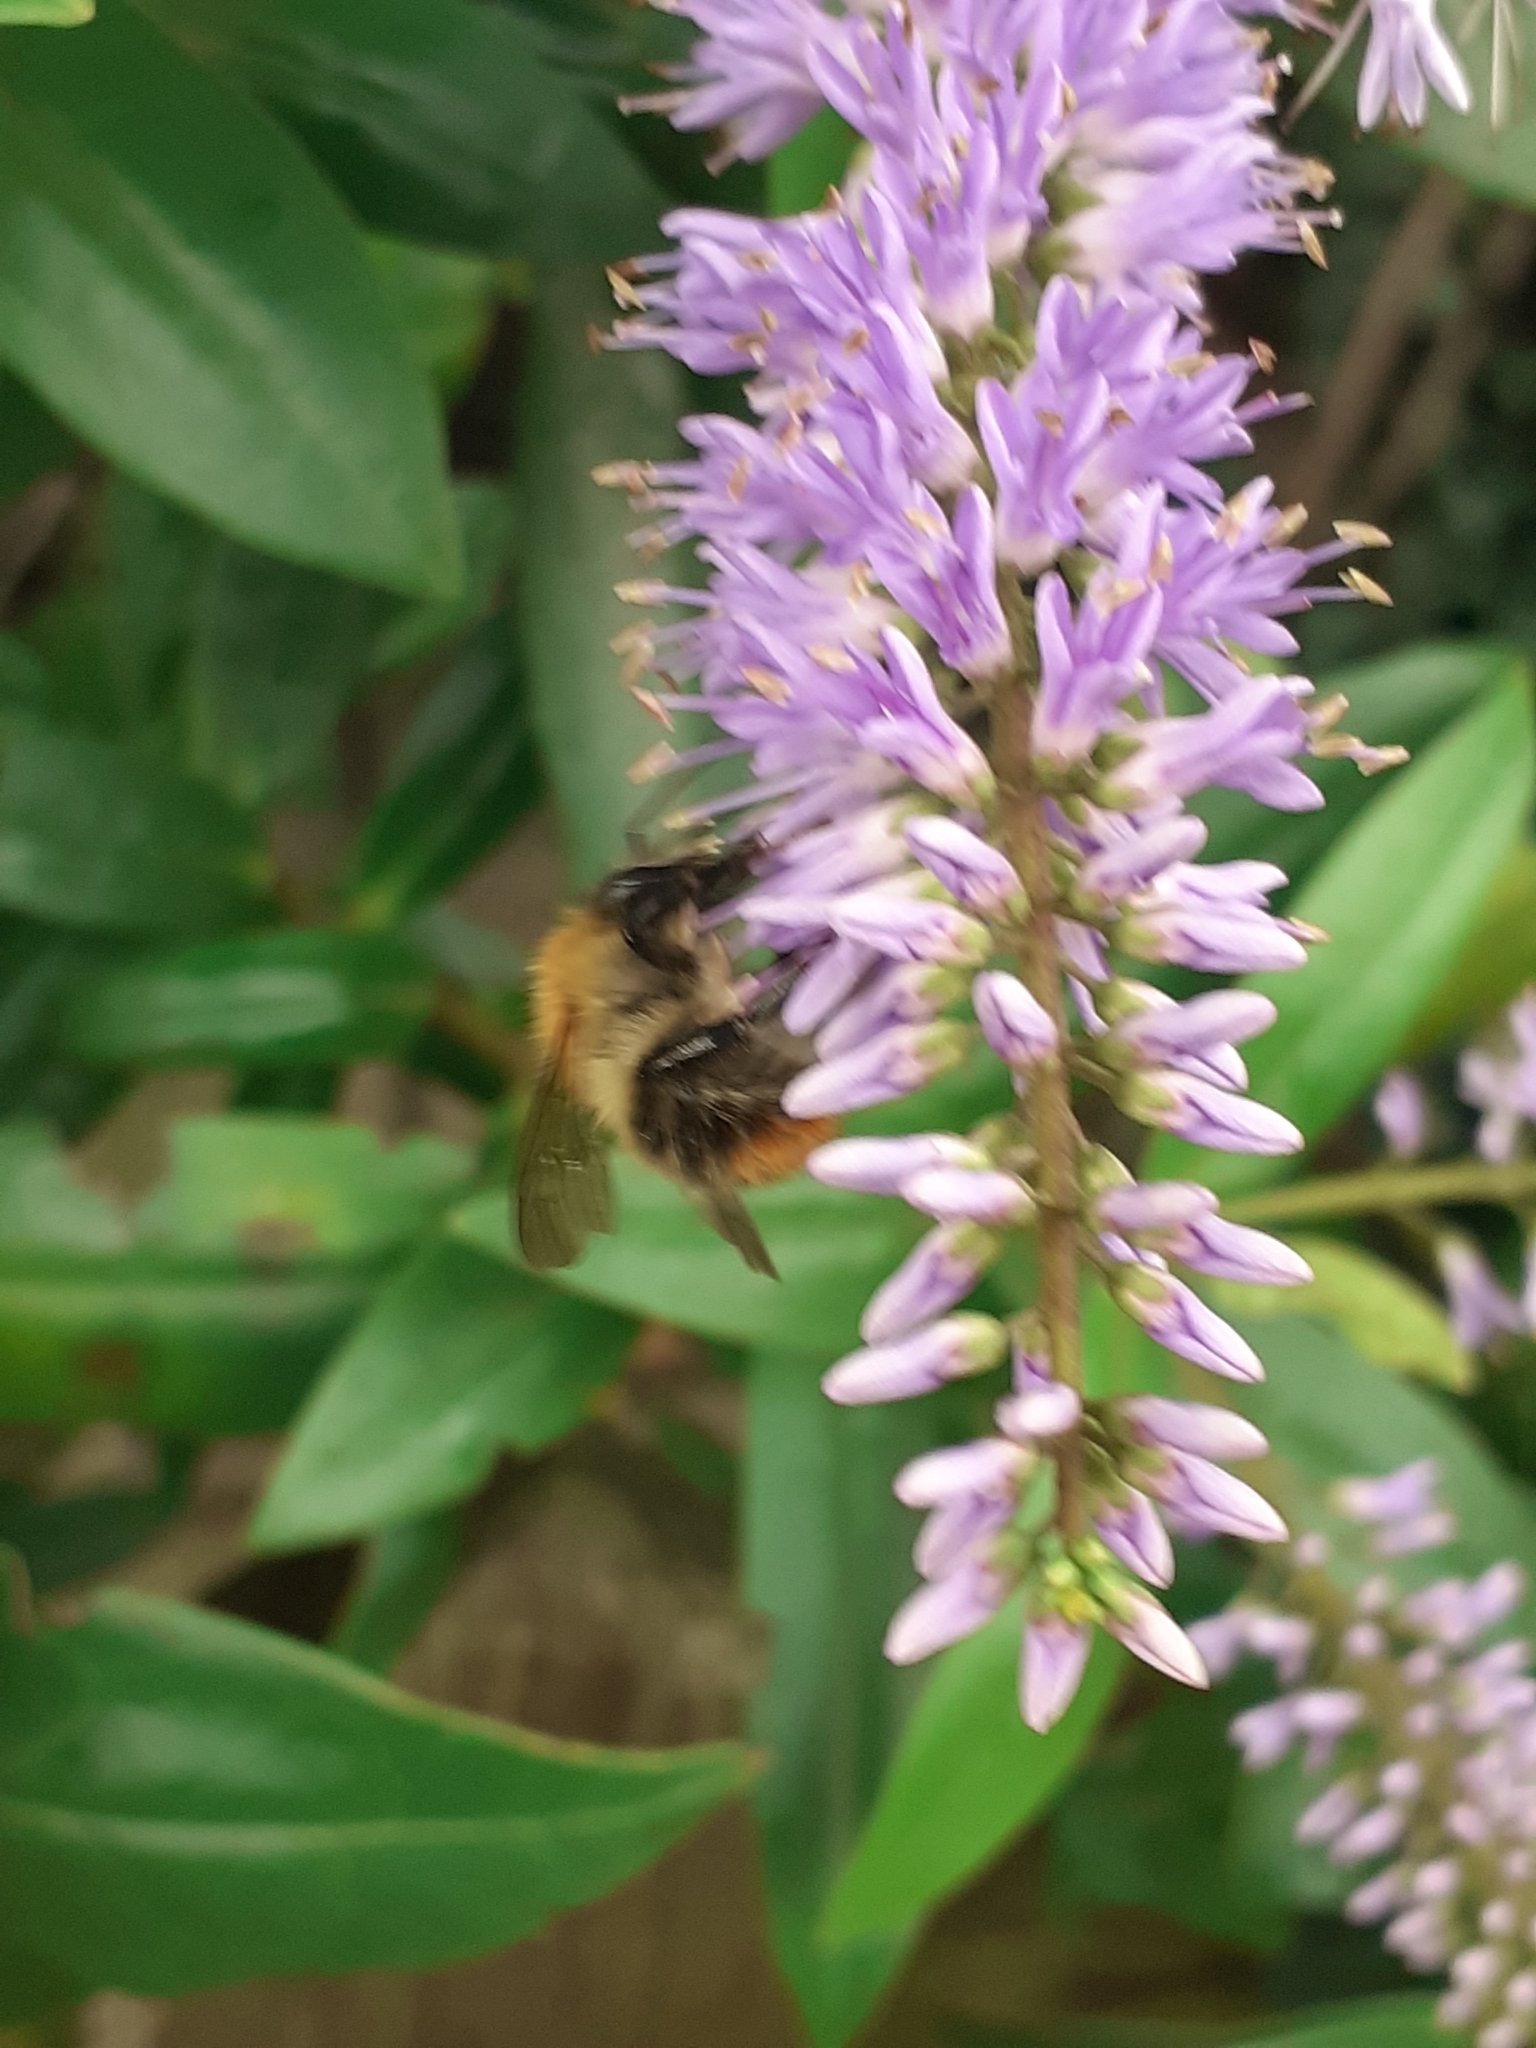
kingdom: Animalia
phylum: Arthropoda
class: Insecta
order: Hymenoptera
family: Apidae
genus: Bombus
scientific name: Bombus pascuorum
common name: Common carder bee
